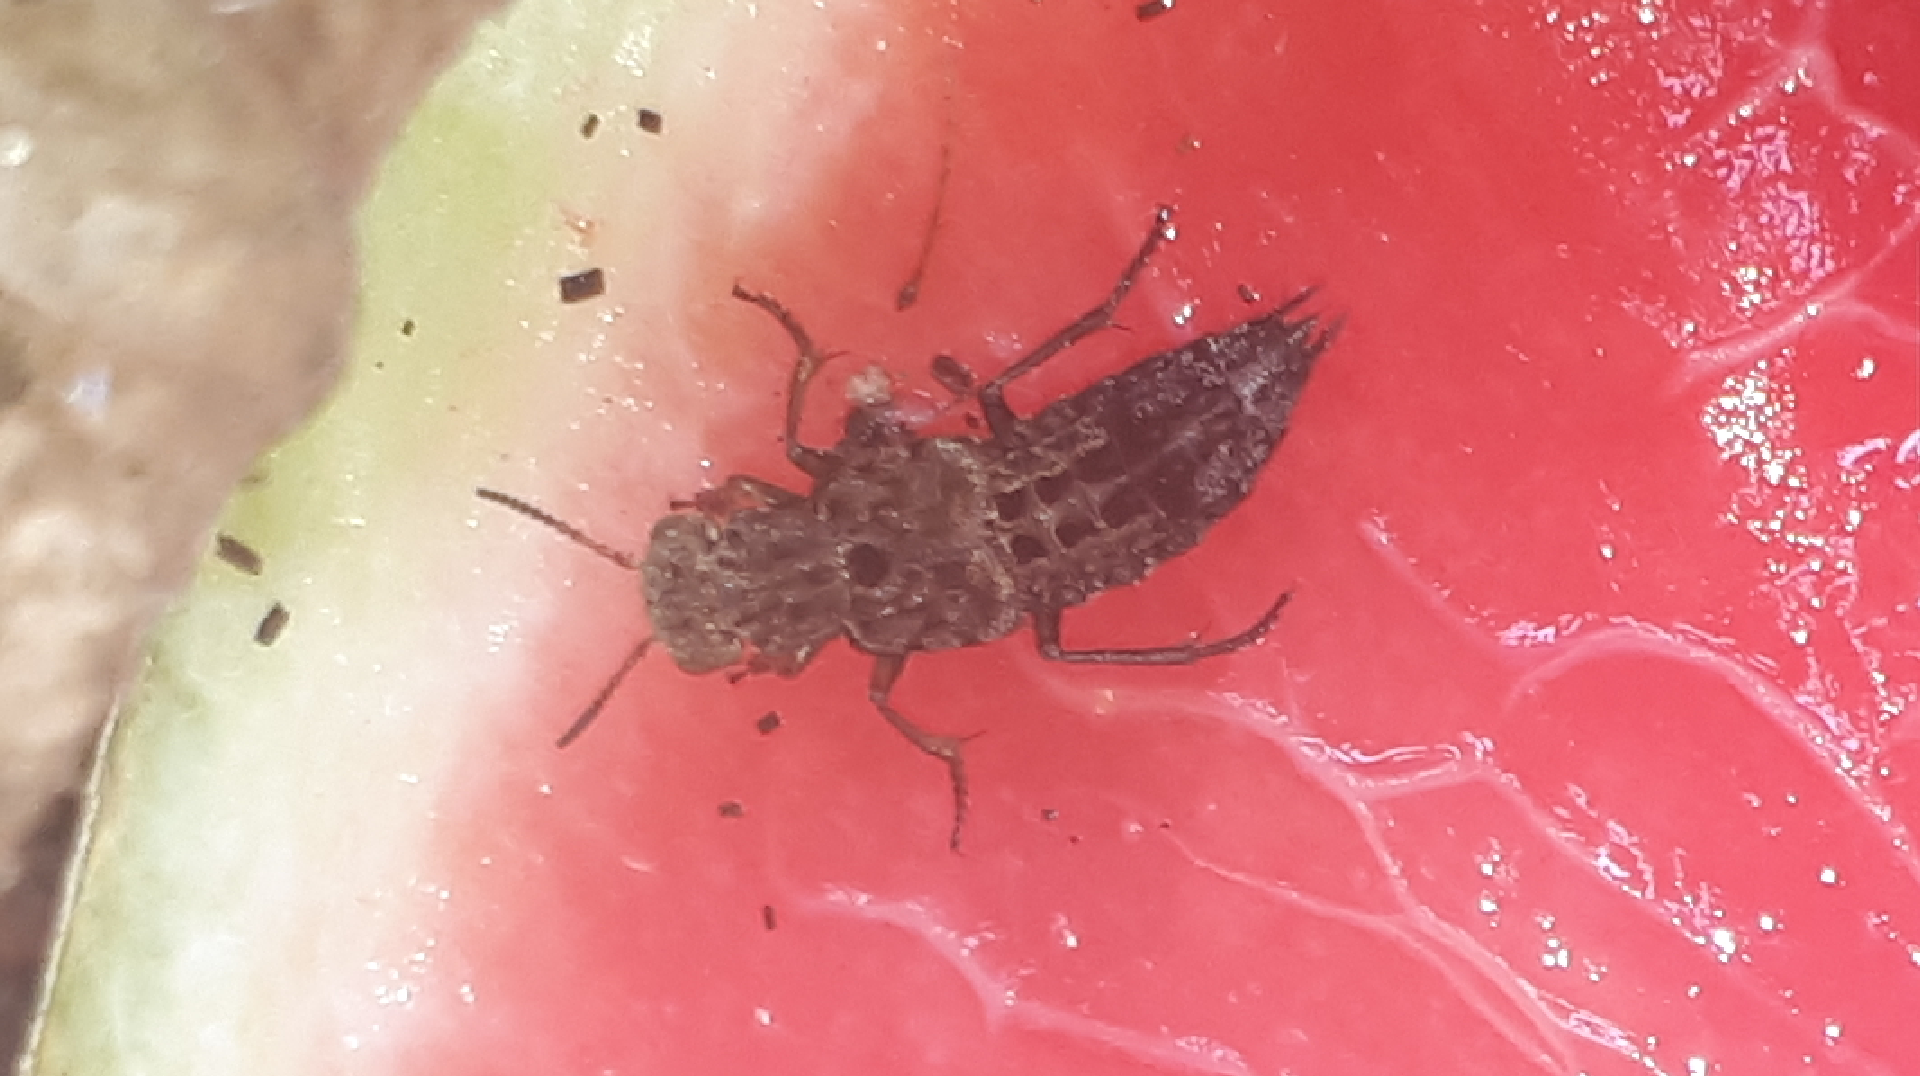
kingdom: Animalia
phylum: Arthropoda
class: Insecta
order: Coleoptera
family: Staphylinidae
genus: Ontholestes
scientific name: Ontholestes tessellatus
